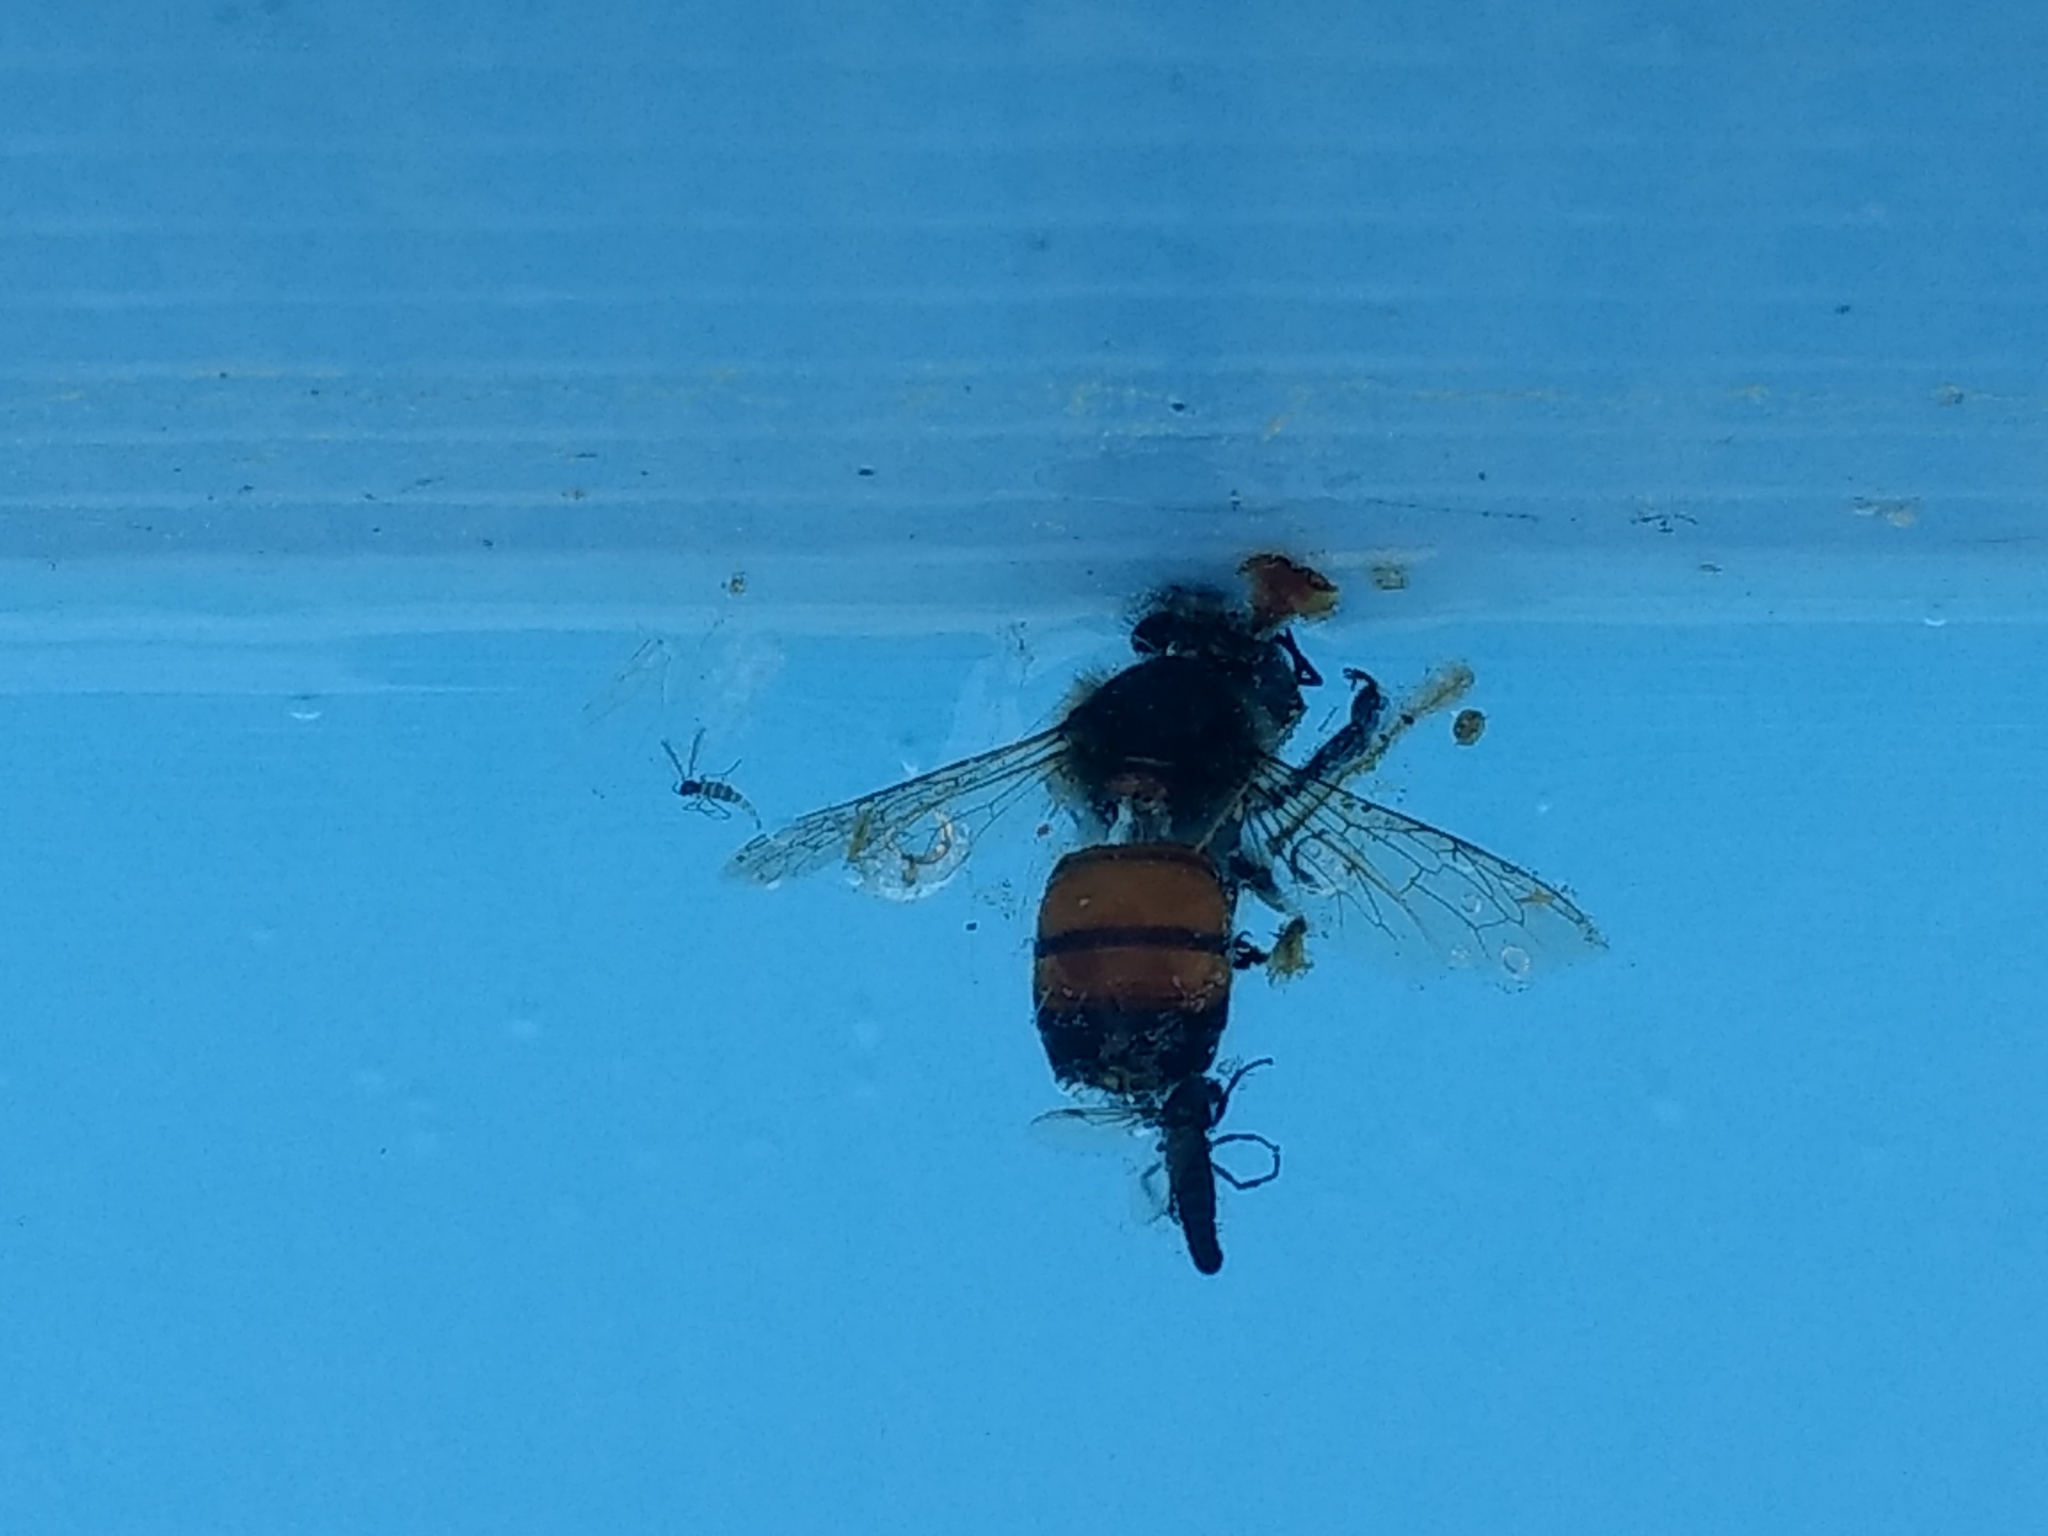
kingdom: Animalia
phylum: Arthropoda
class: Insecta
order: Hymenoptera
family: Apidae
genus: Apis
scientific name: Apis mellifera
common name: Honey bee
